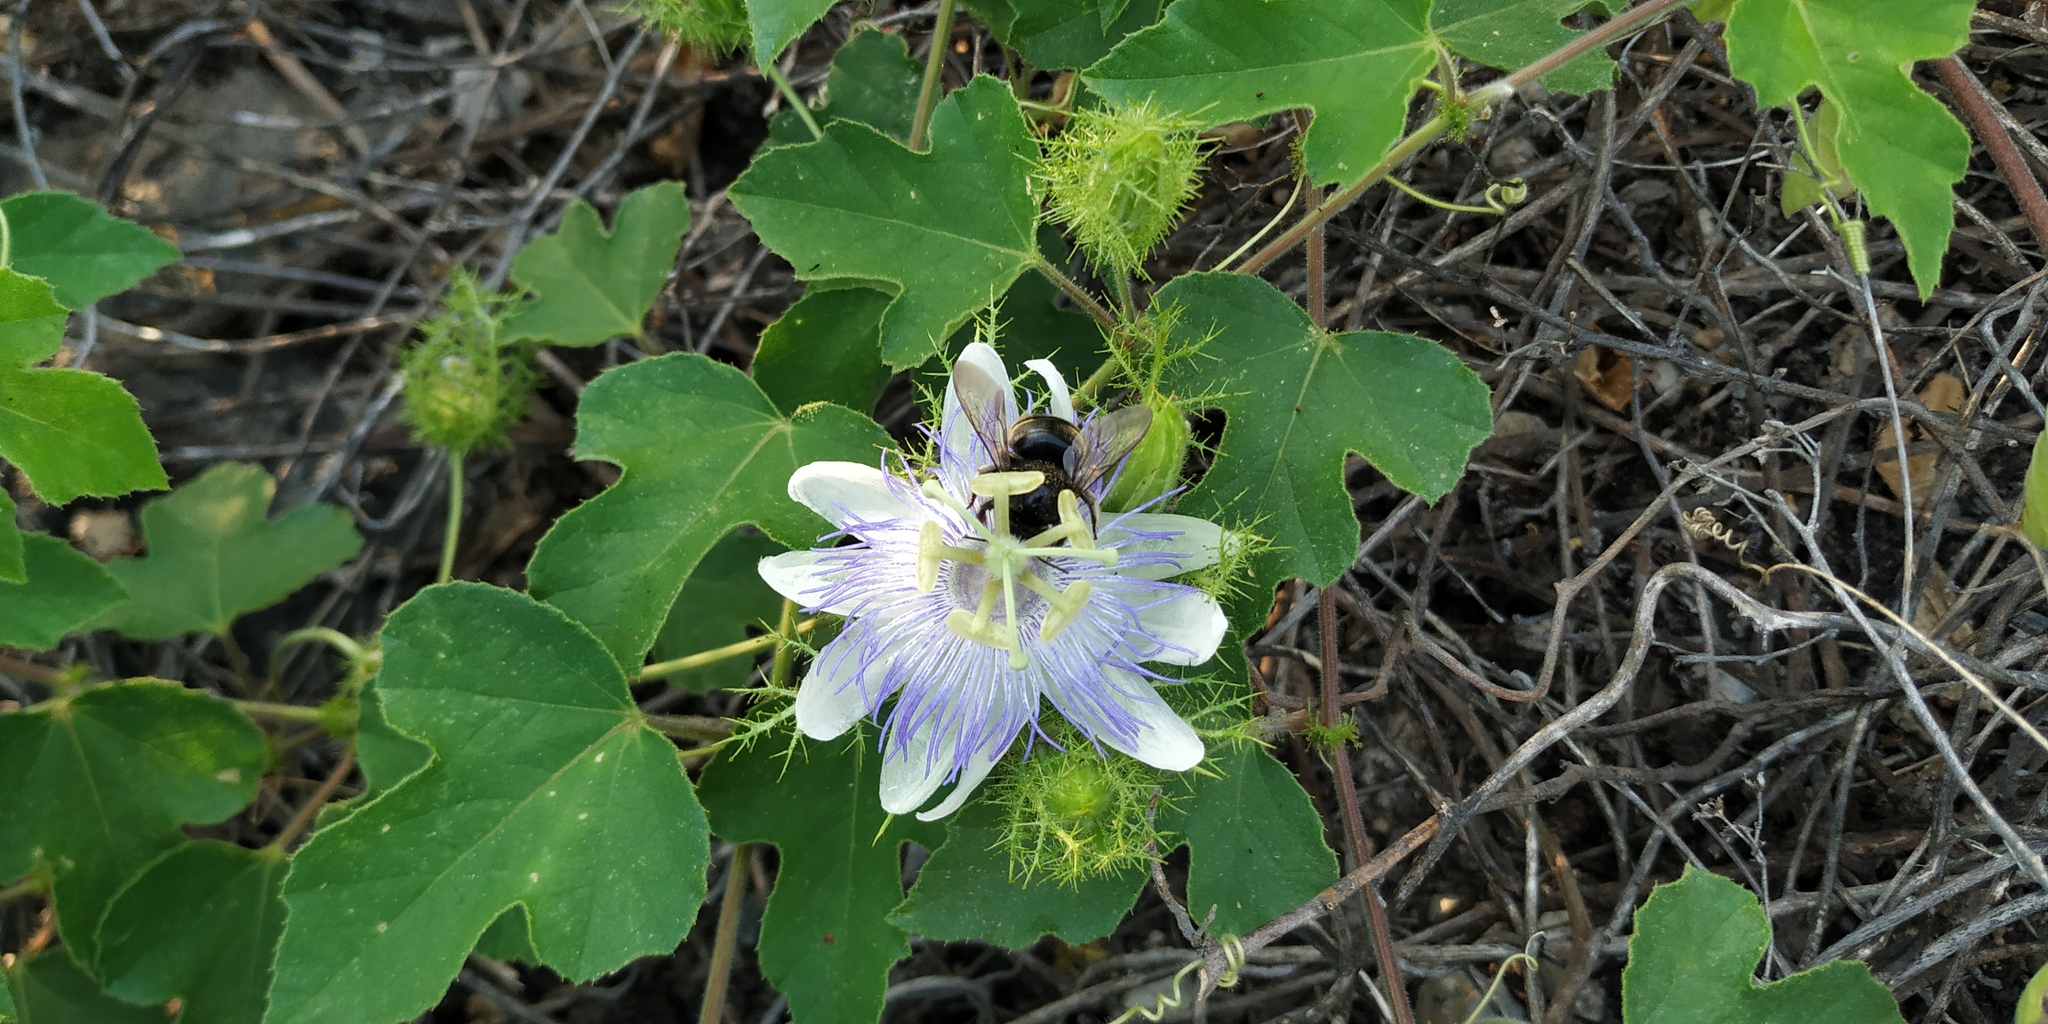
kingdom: Animalia
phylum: Arthropoda
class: Insecta
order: Hymenoptera
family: Apidae
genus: Xylocopa
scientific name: Xylocopa tabaniformis
